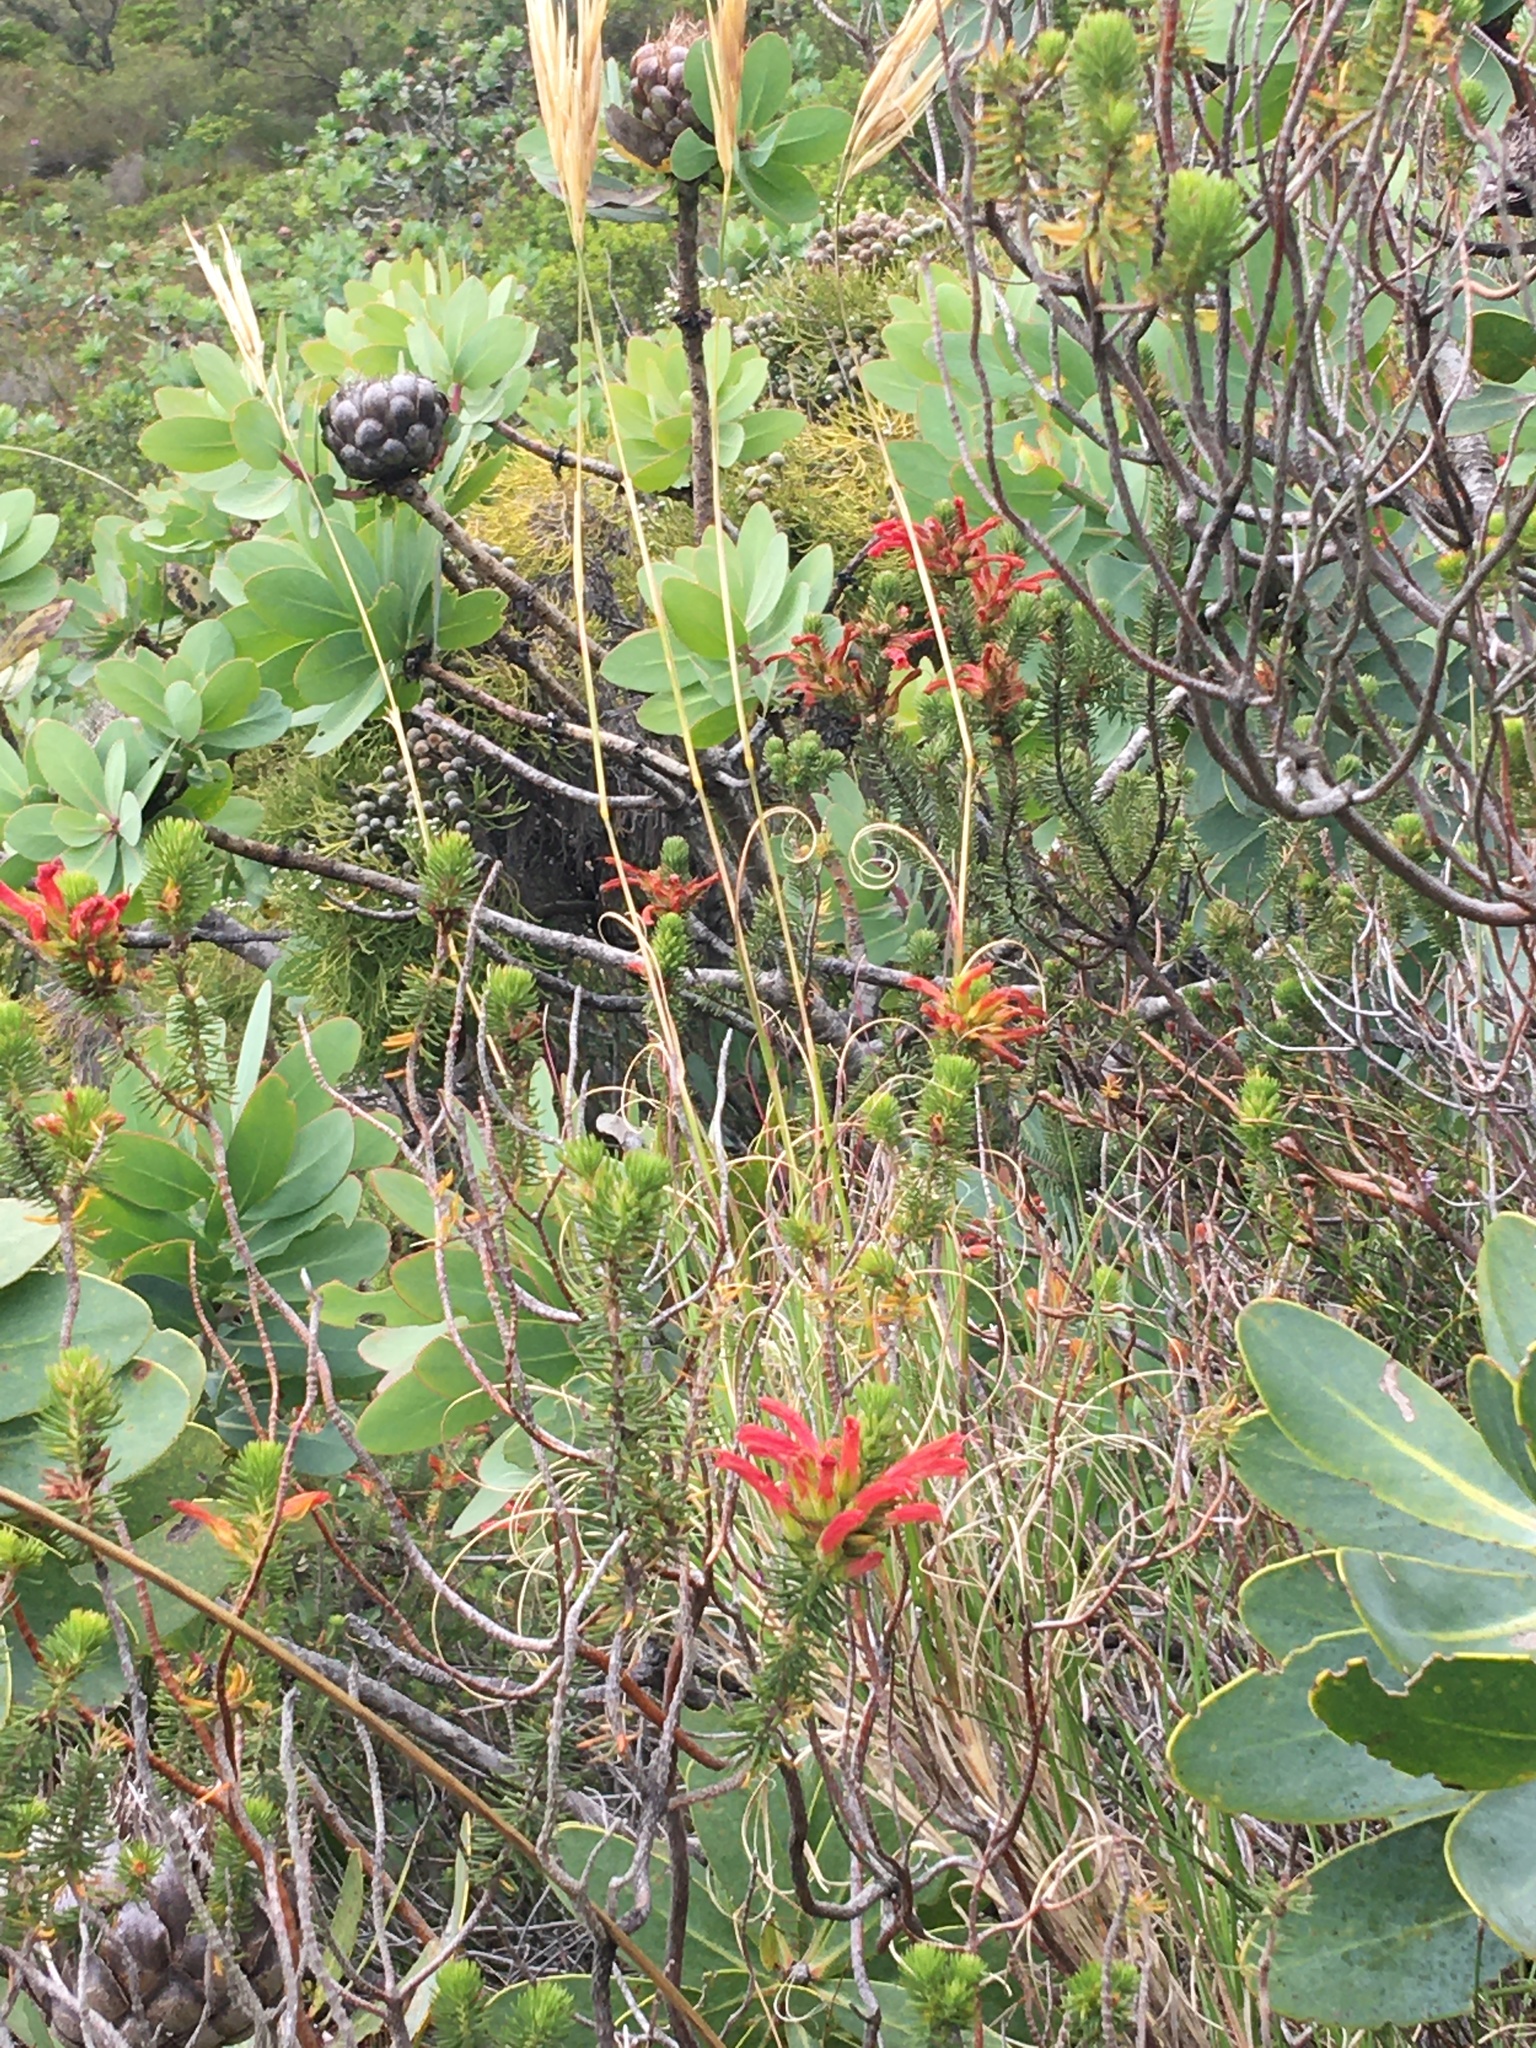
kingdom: Plantae
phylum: Tracheophyta
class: Magnoliopsida
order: Ericales
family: Ericaceae
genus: Erica
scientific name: Erica abietina
